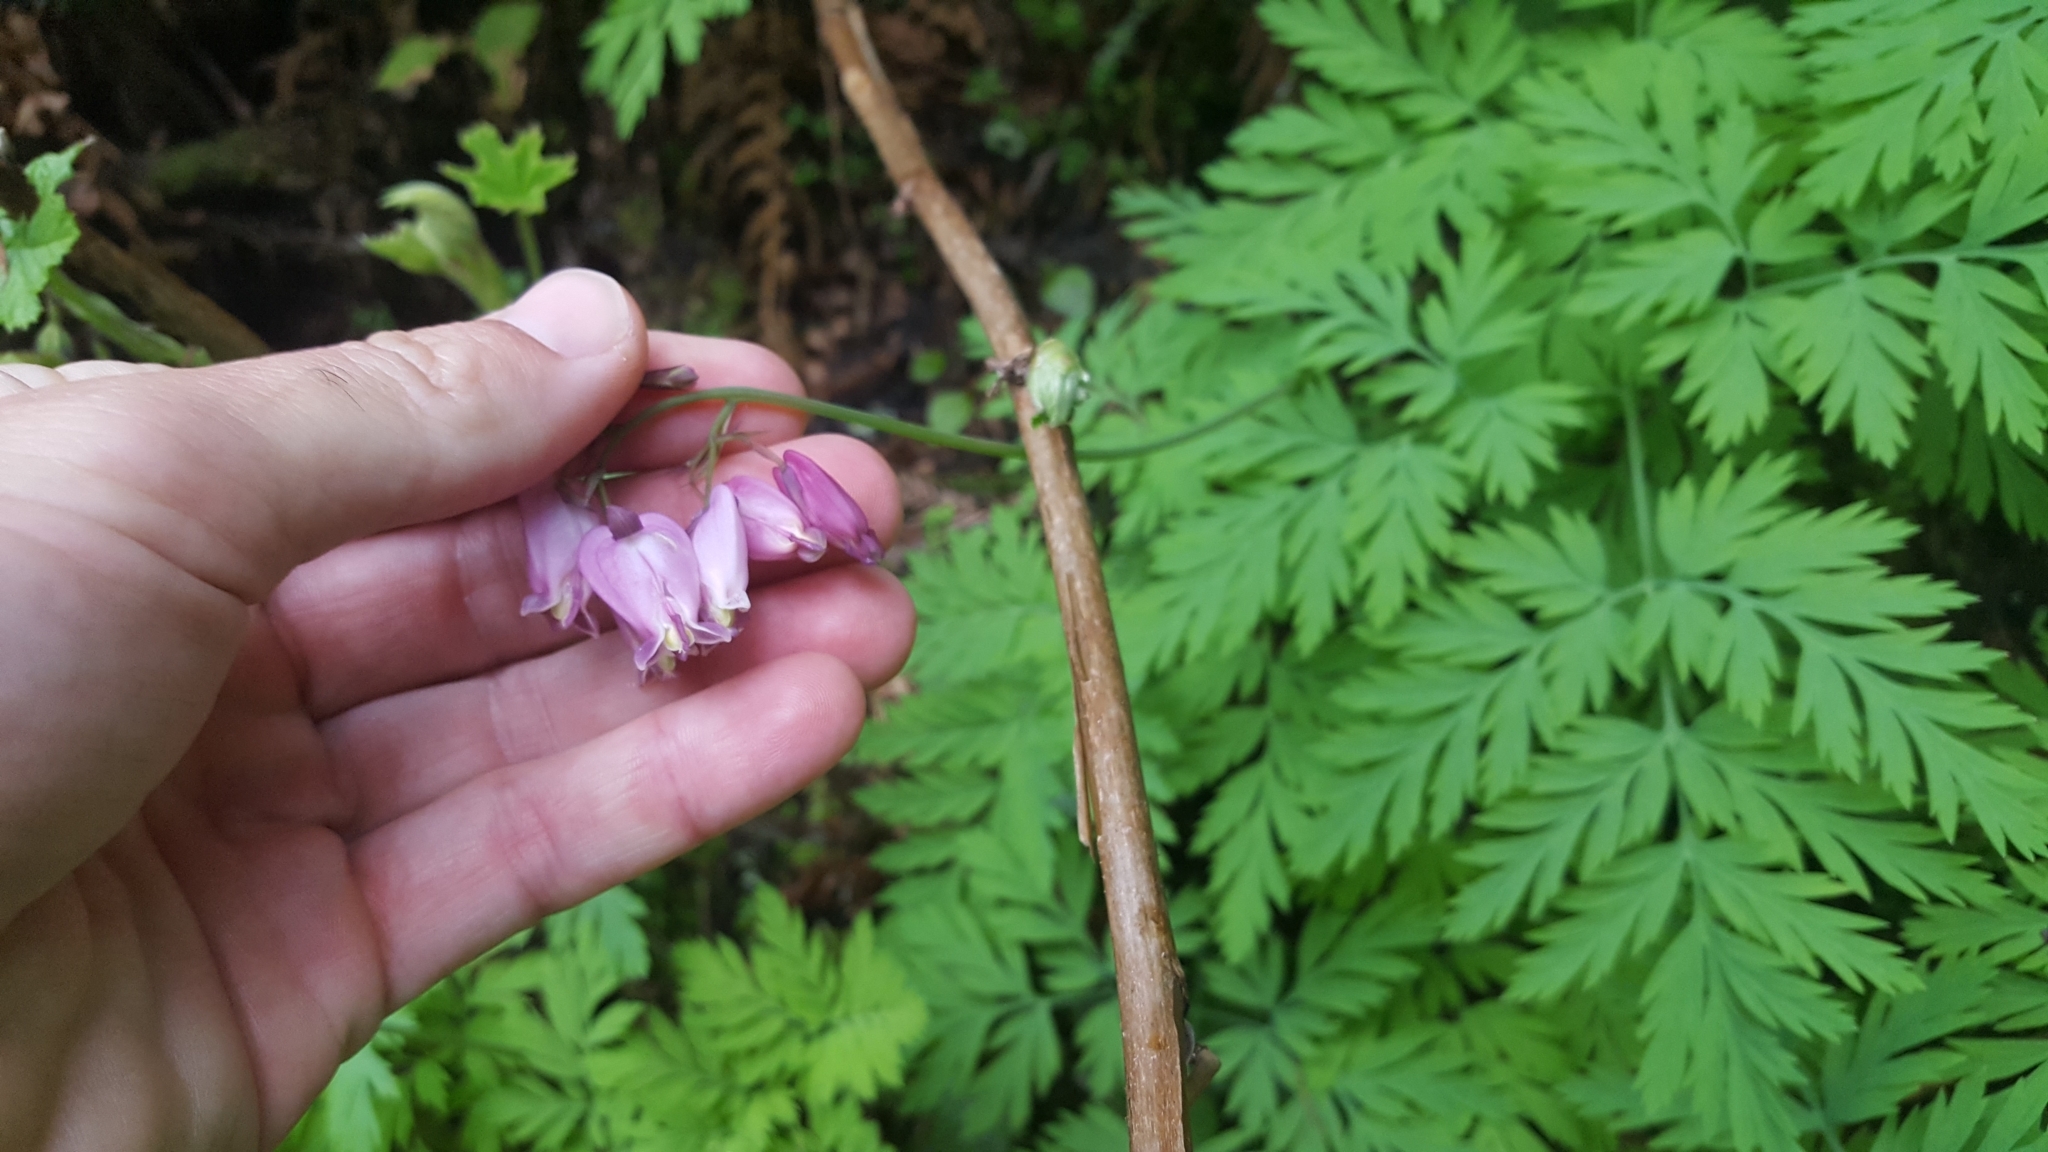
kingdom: Plantae
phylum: Tracheophyta
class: Magnoliopsida
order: Ranunculales
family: Papaveraceae
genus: Dicentra
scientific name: Dicentra formosa
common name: Bleeding-heart
